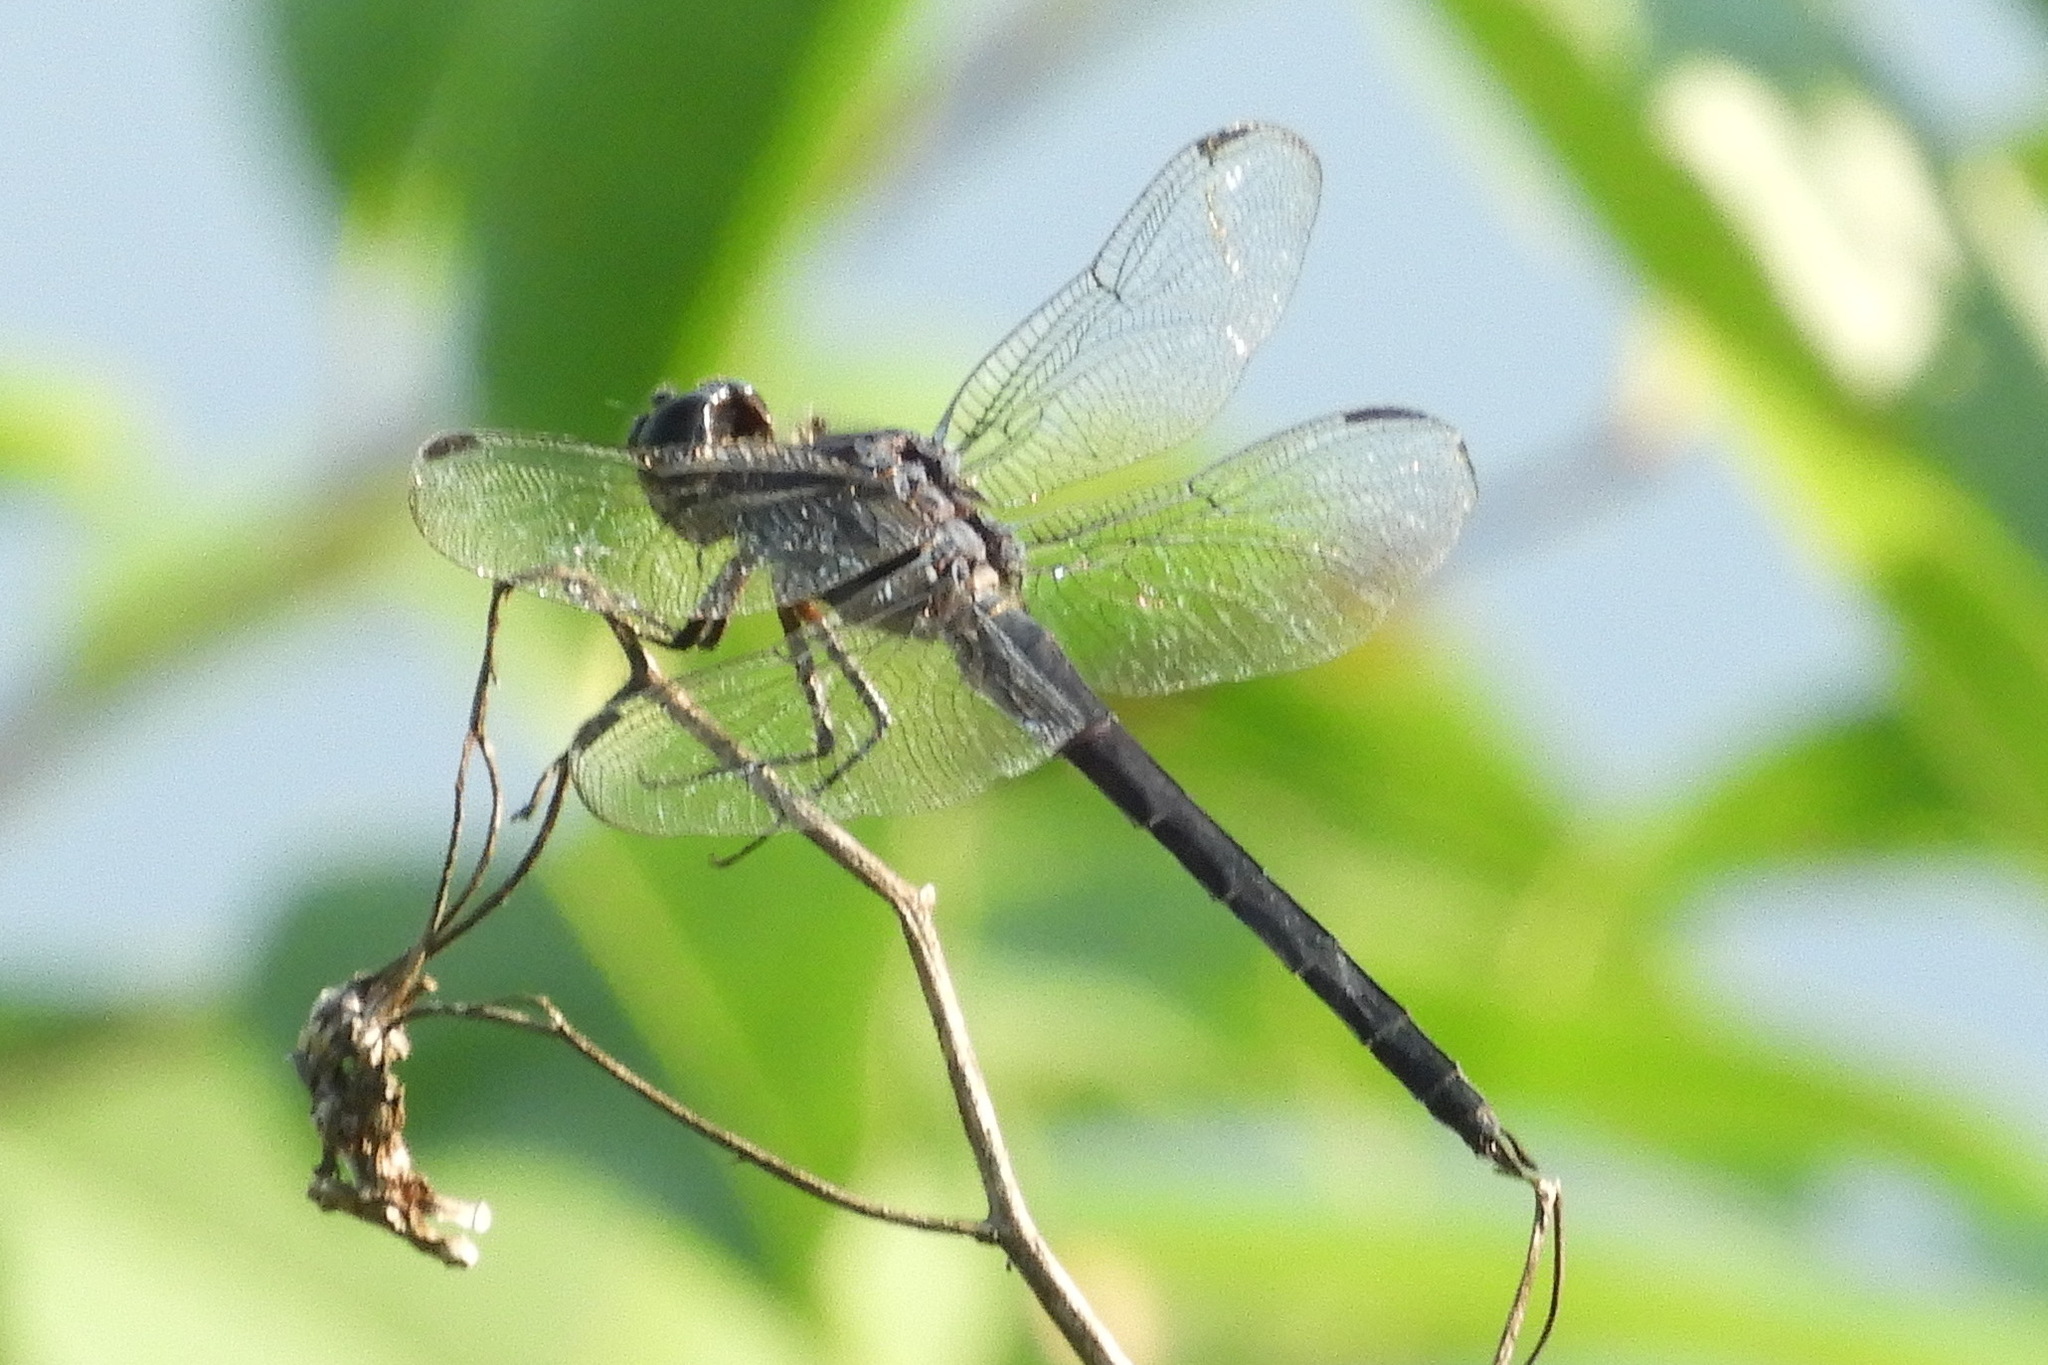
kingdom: Animalia
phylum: Arthropoda
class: Insecta
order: Odonata
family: Libellulidae
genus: Libellula
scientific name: Libellula incesta
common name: Slaty skimmer
